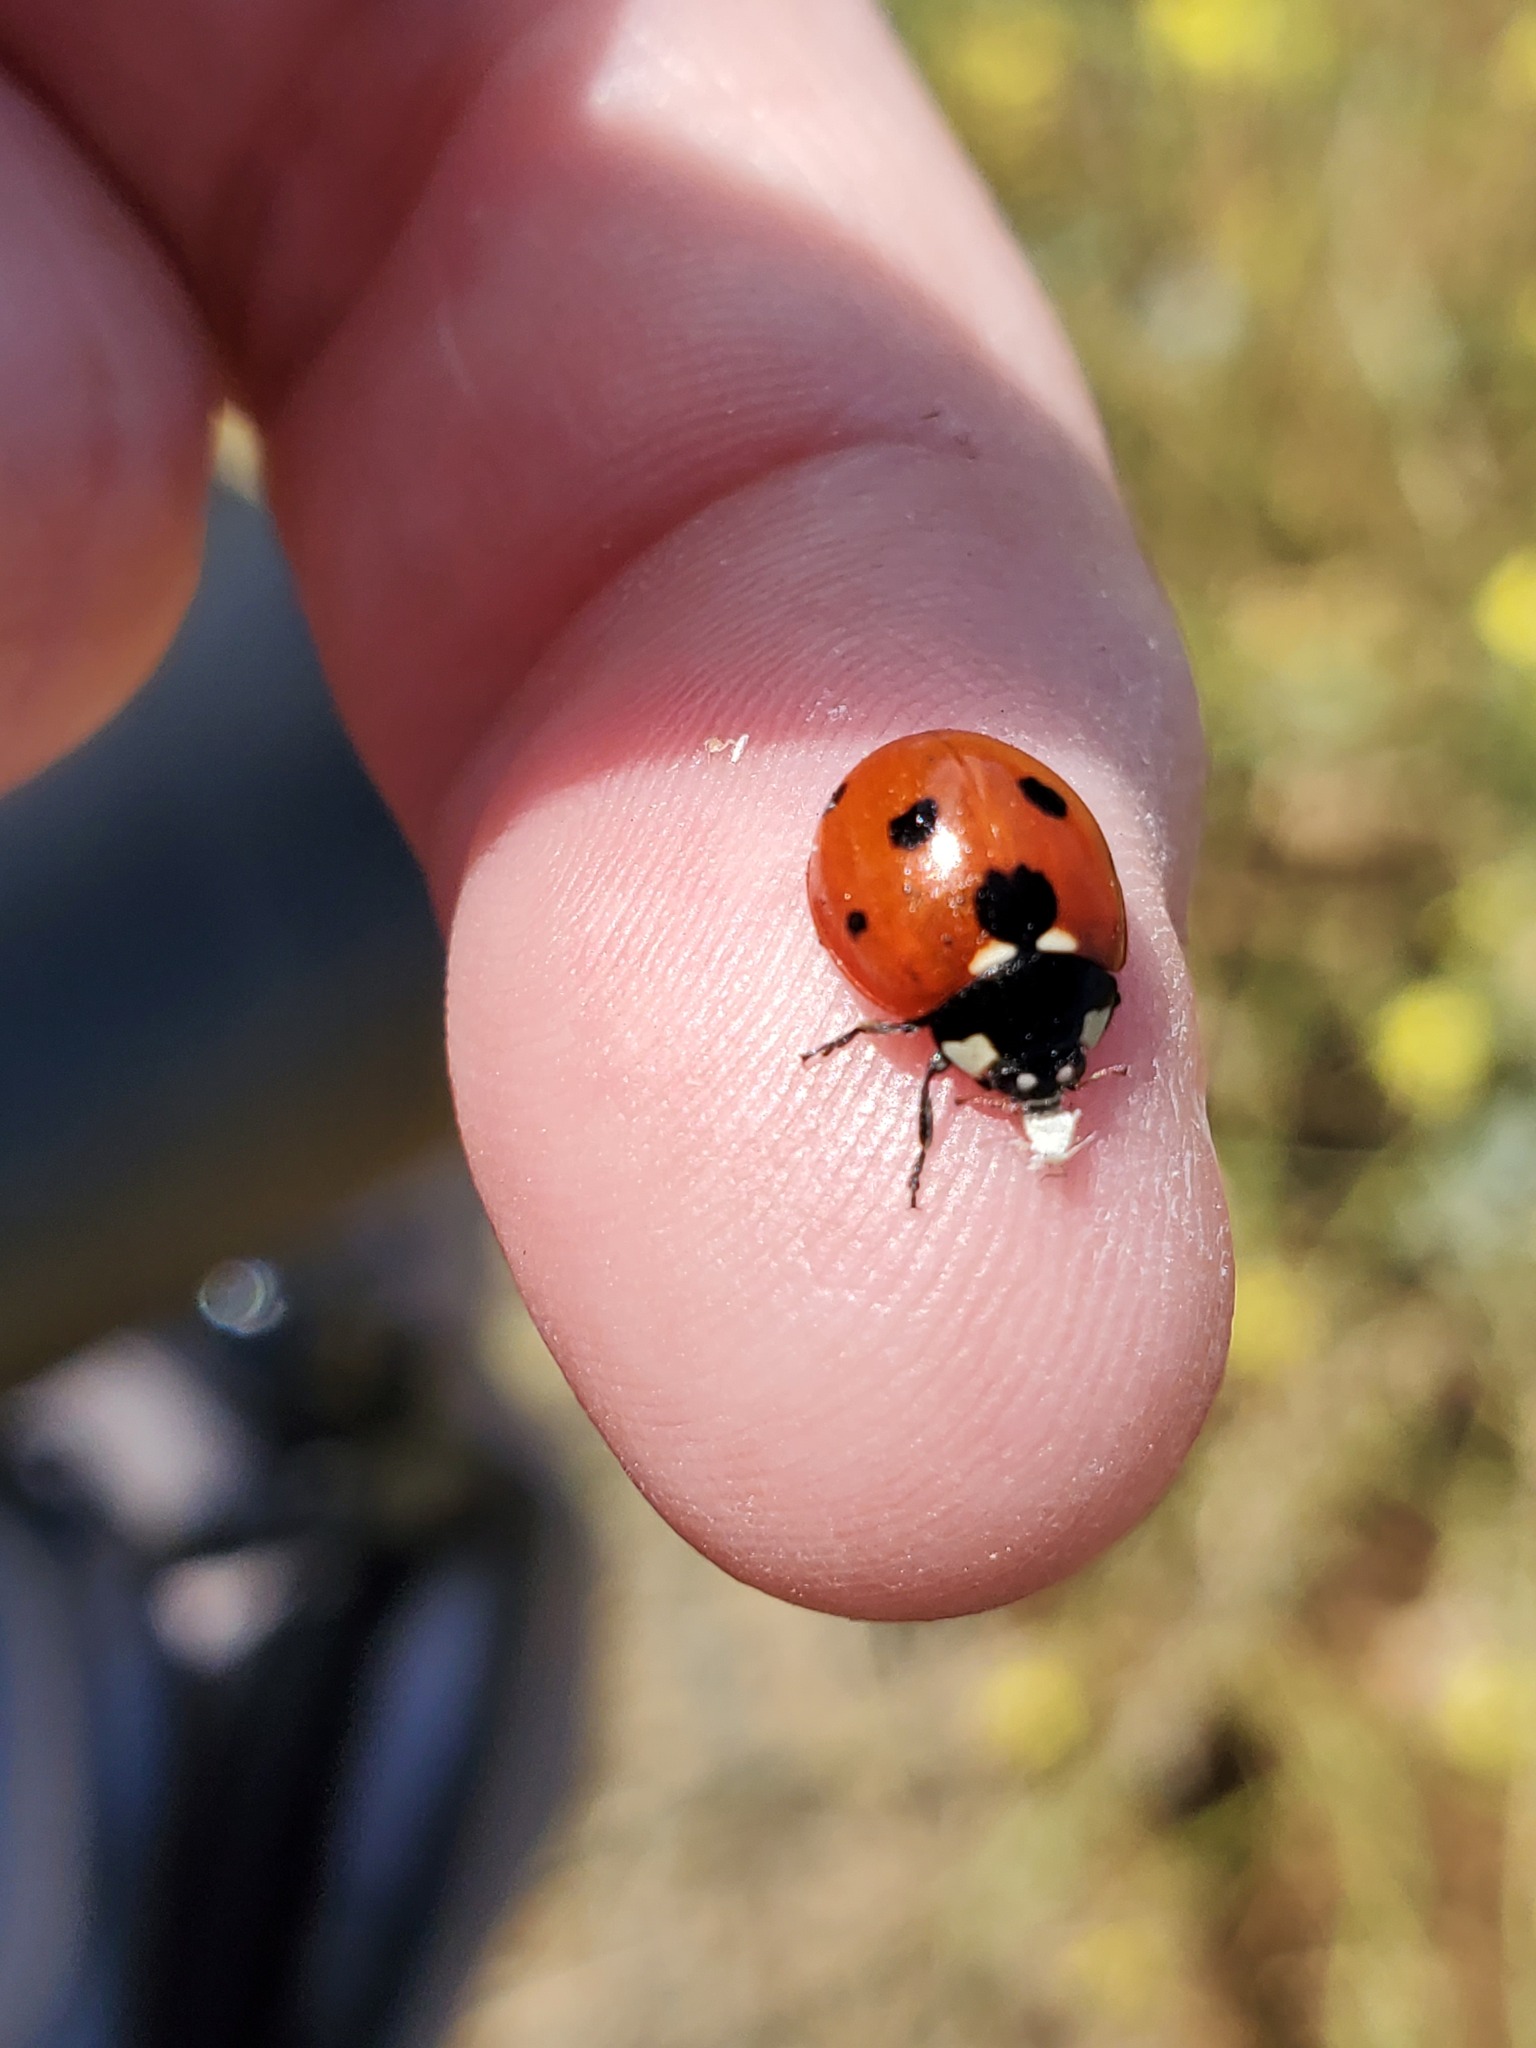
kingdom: Animalia
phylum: Arthropoda
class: Insecta
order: Coleoptera
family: Coccinellidae
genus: Coccinella
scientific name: Coccinella septempunctata
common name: Sevenspotted lady beetle
